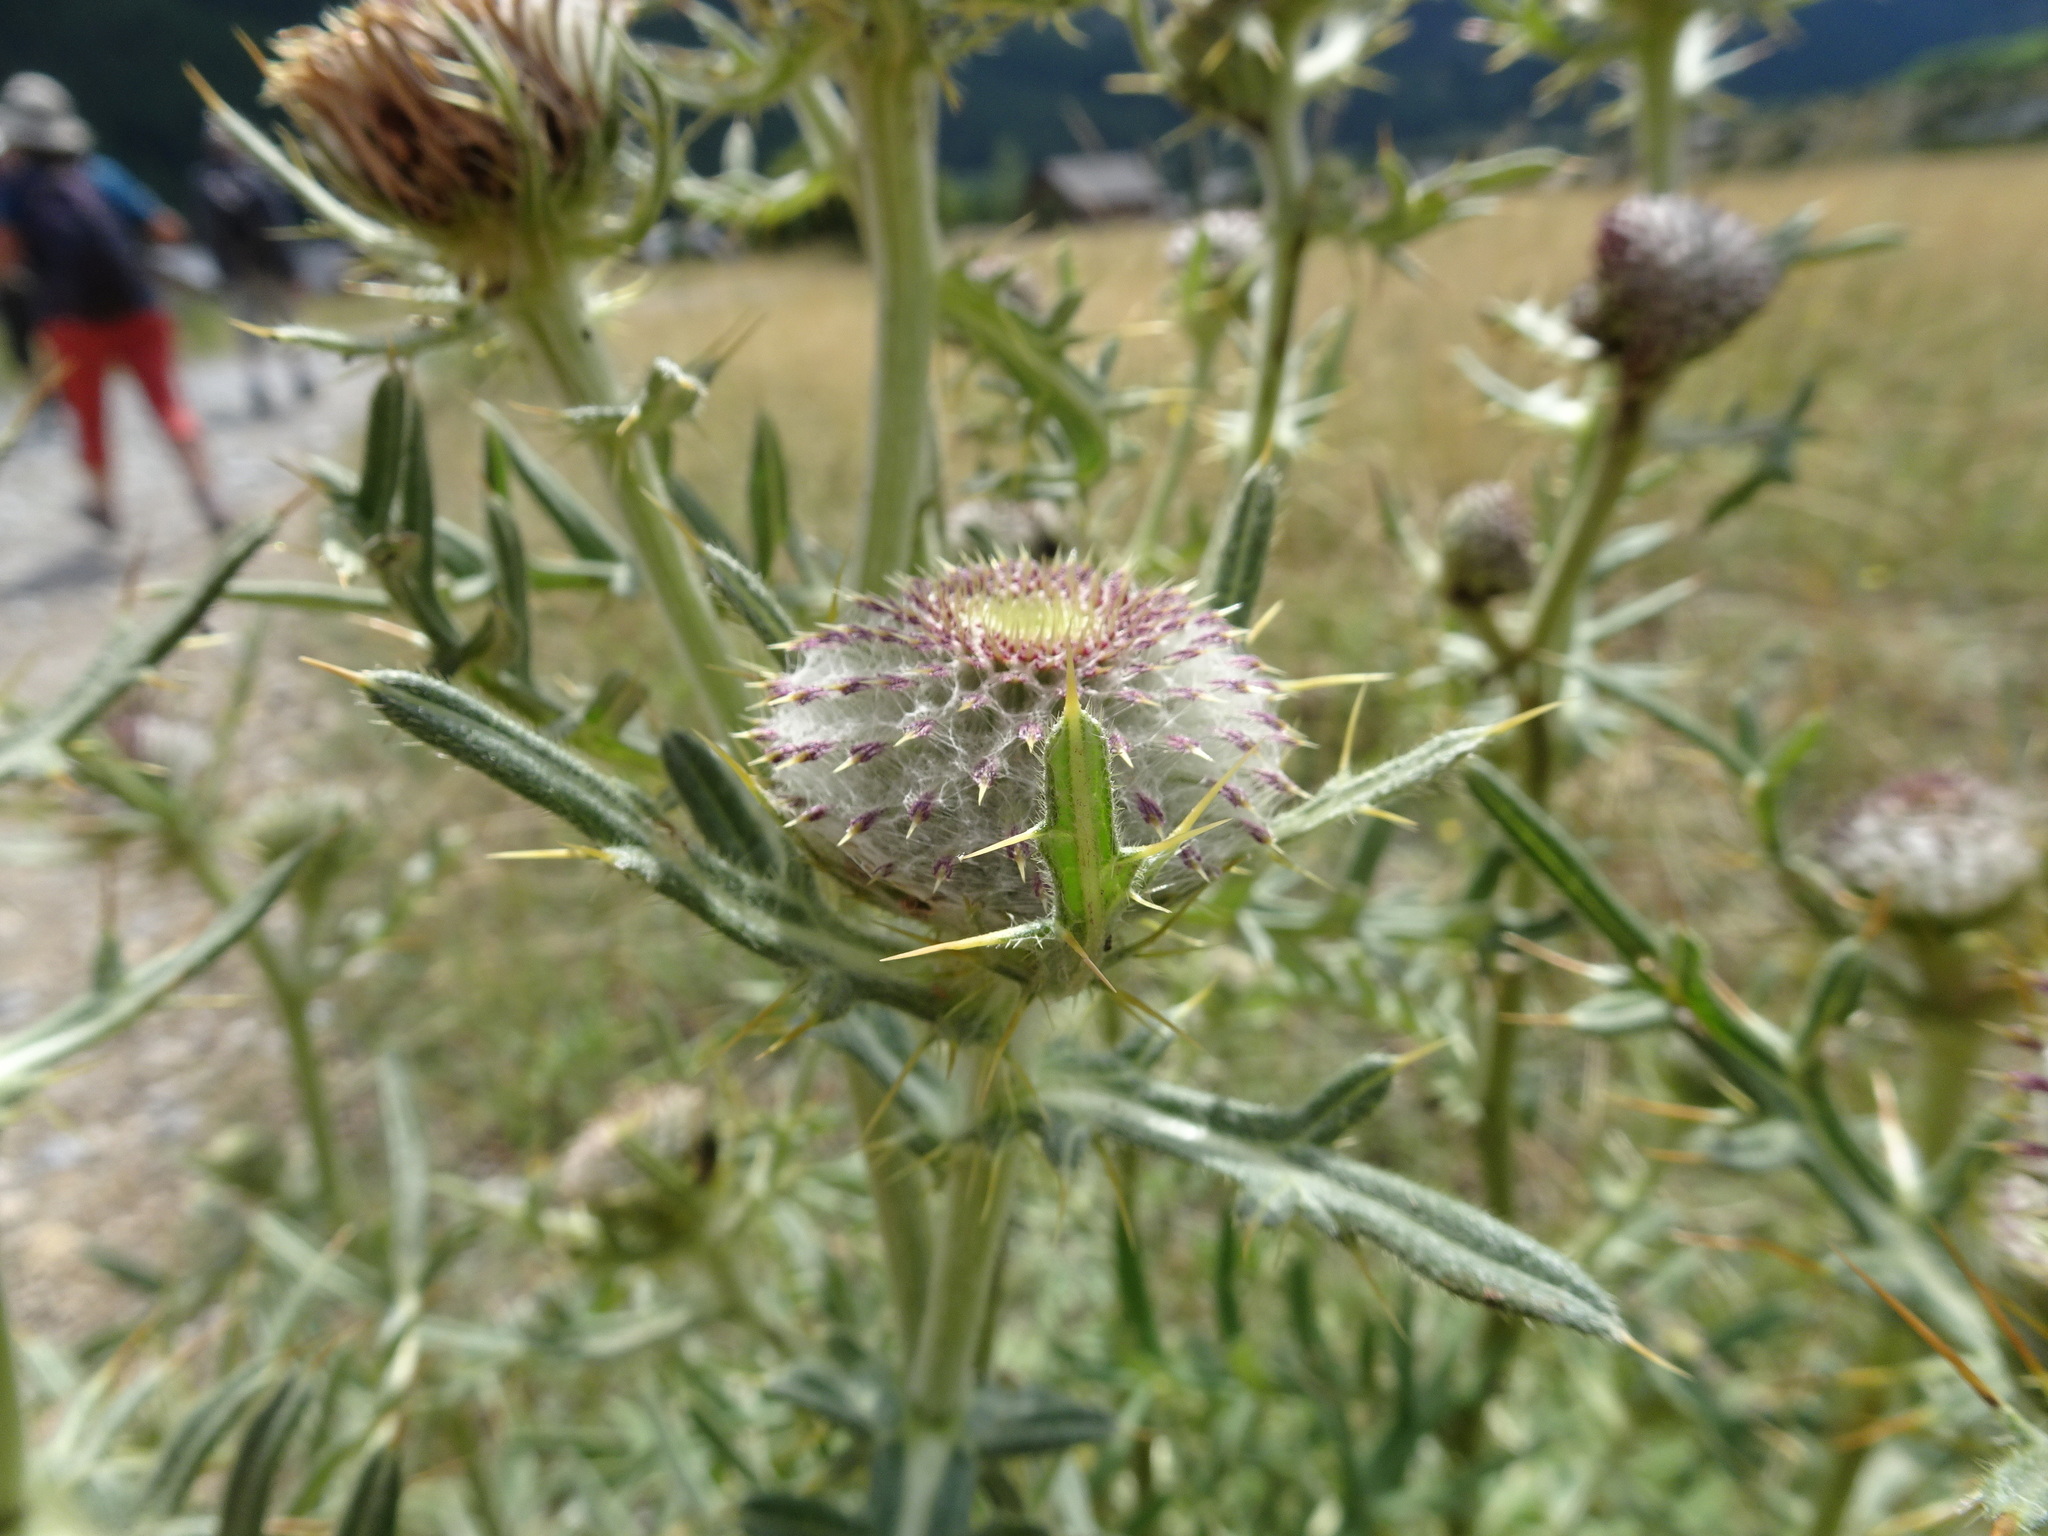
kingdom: Plantae
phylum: Tracheophyta
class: Magnoliopsida
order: Asterales
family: Asteraceae
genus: Lophiolepis
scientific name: Lophiolepis eriophora
